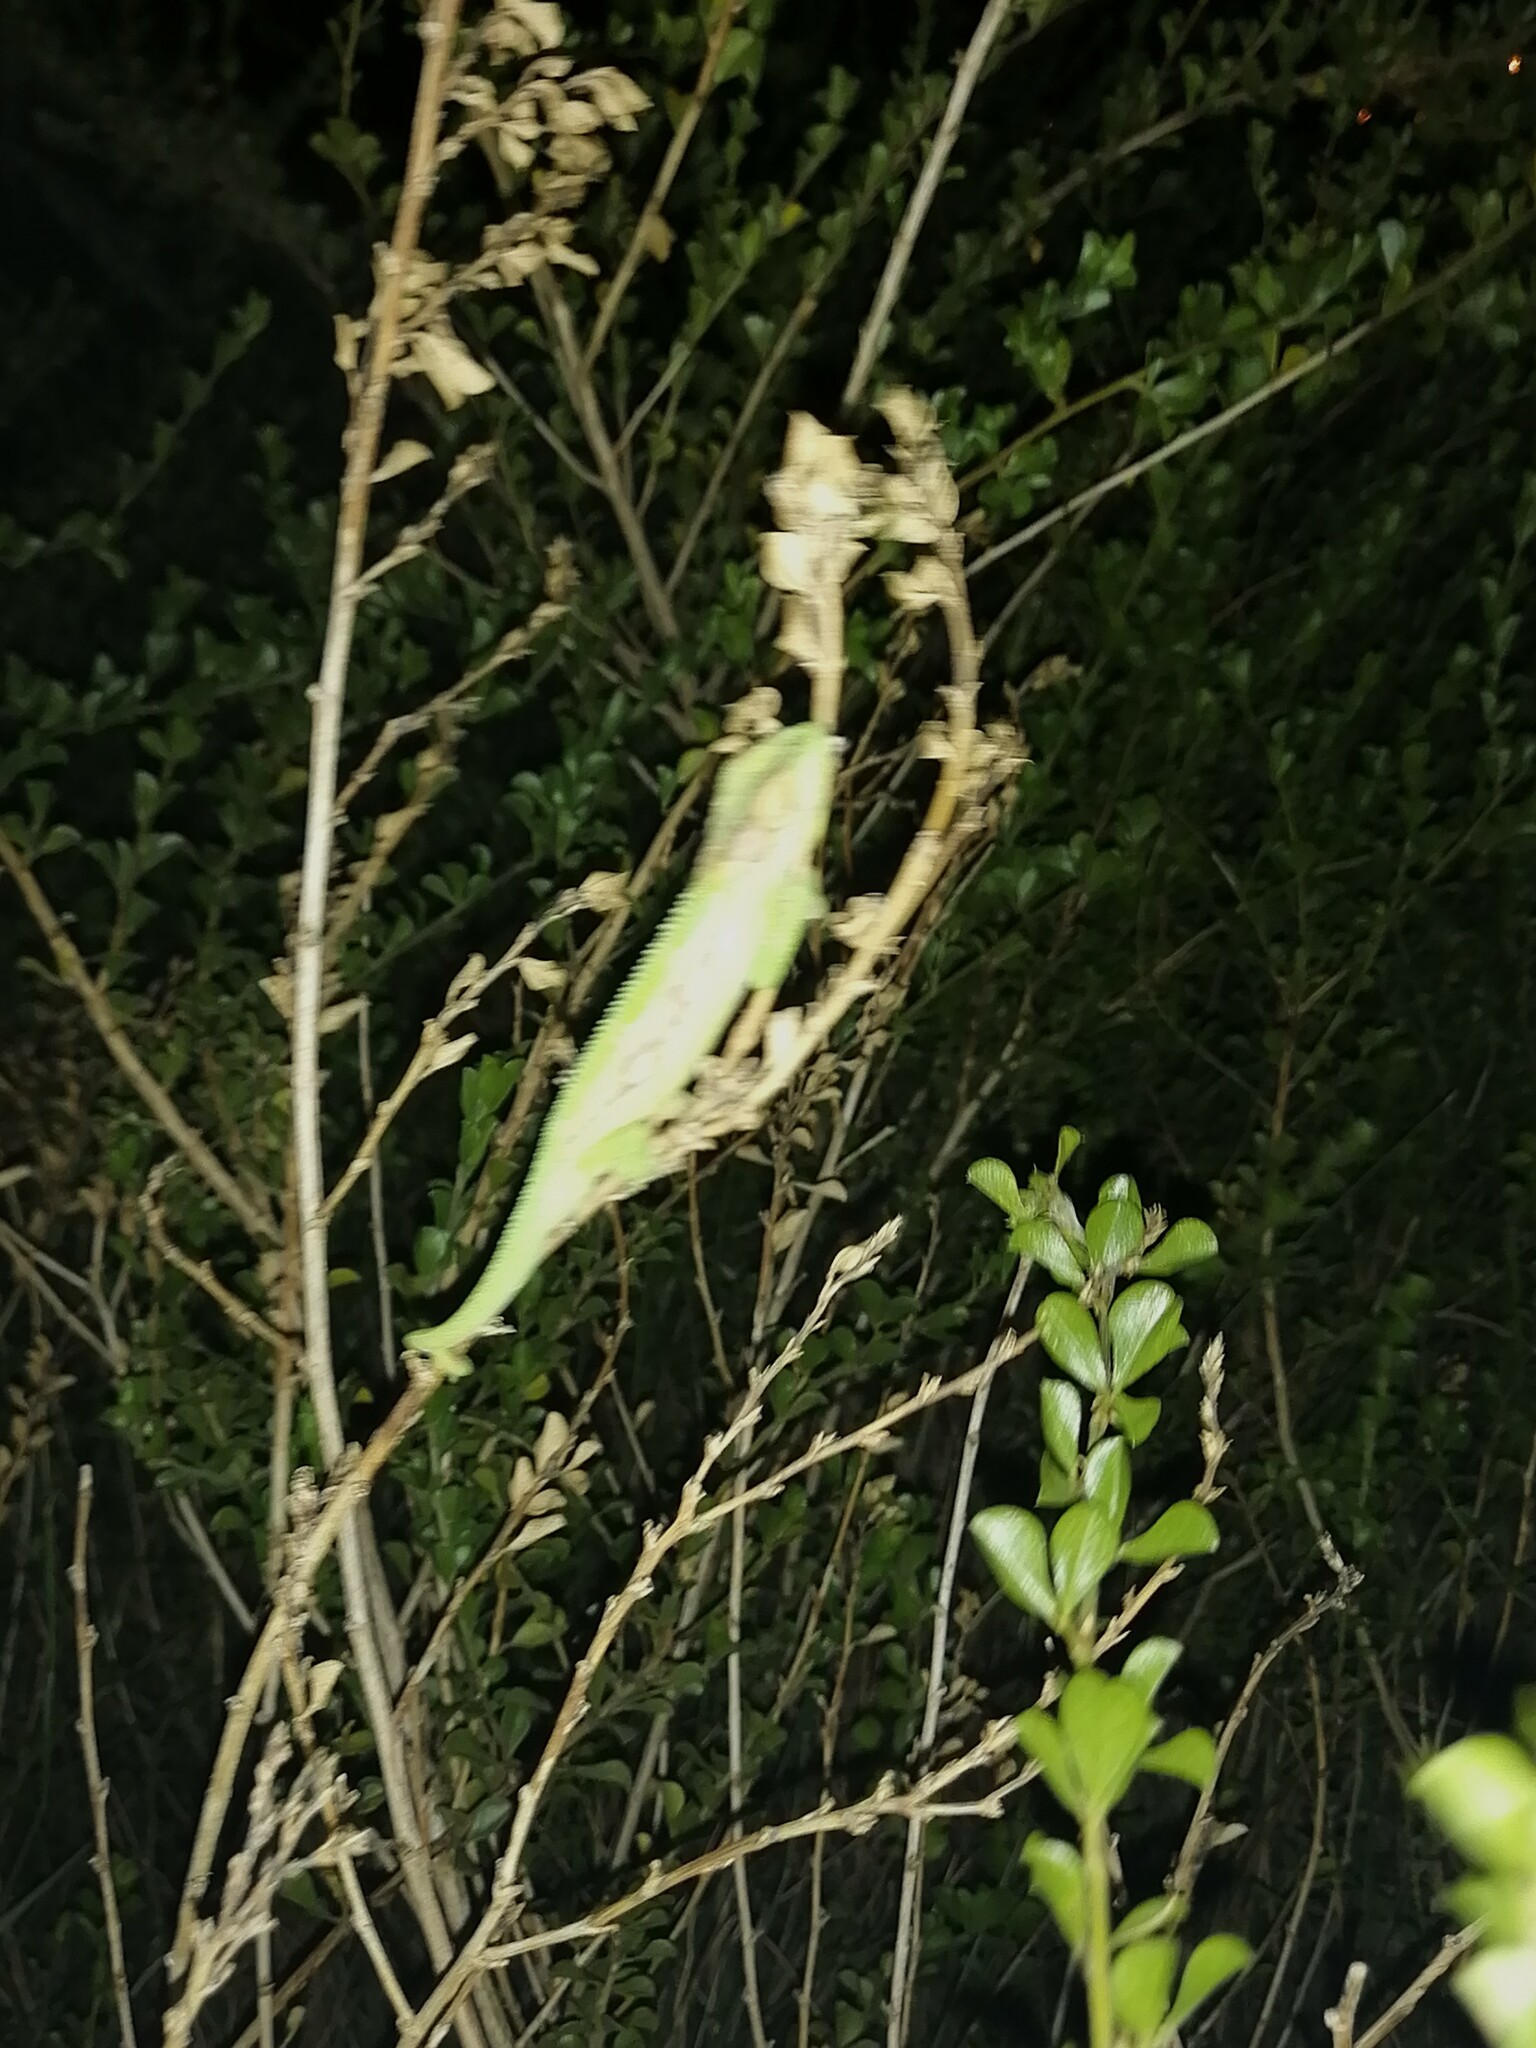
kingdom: Animalia
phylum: Chordata
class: Squamata
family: Chamaeleonidae
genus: Bradypodion
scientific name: Bradypodion pumilum
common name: Cape dwarf chameleon
